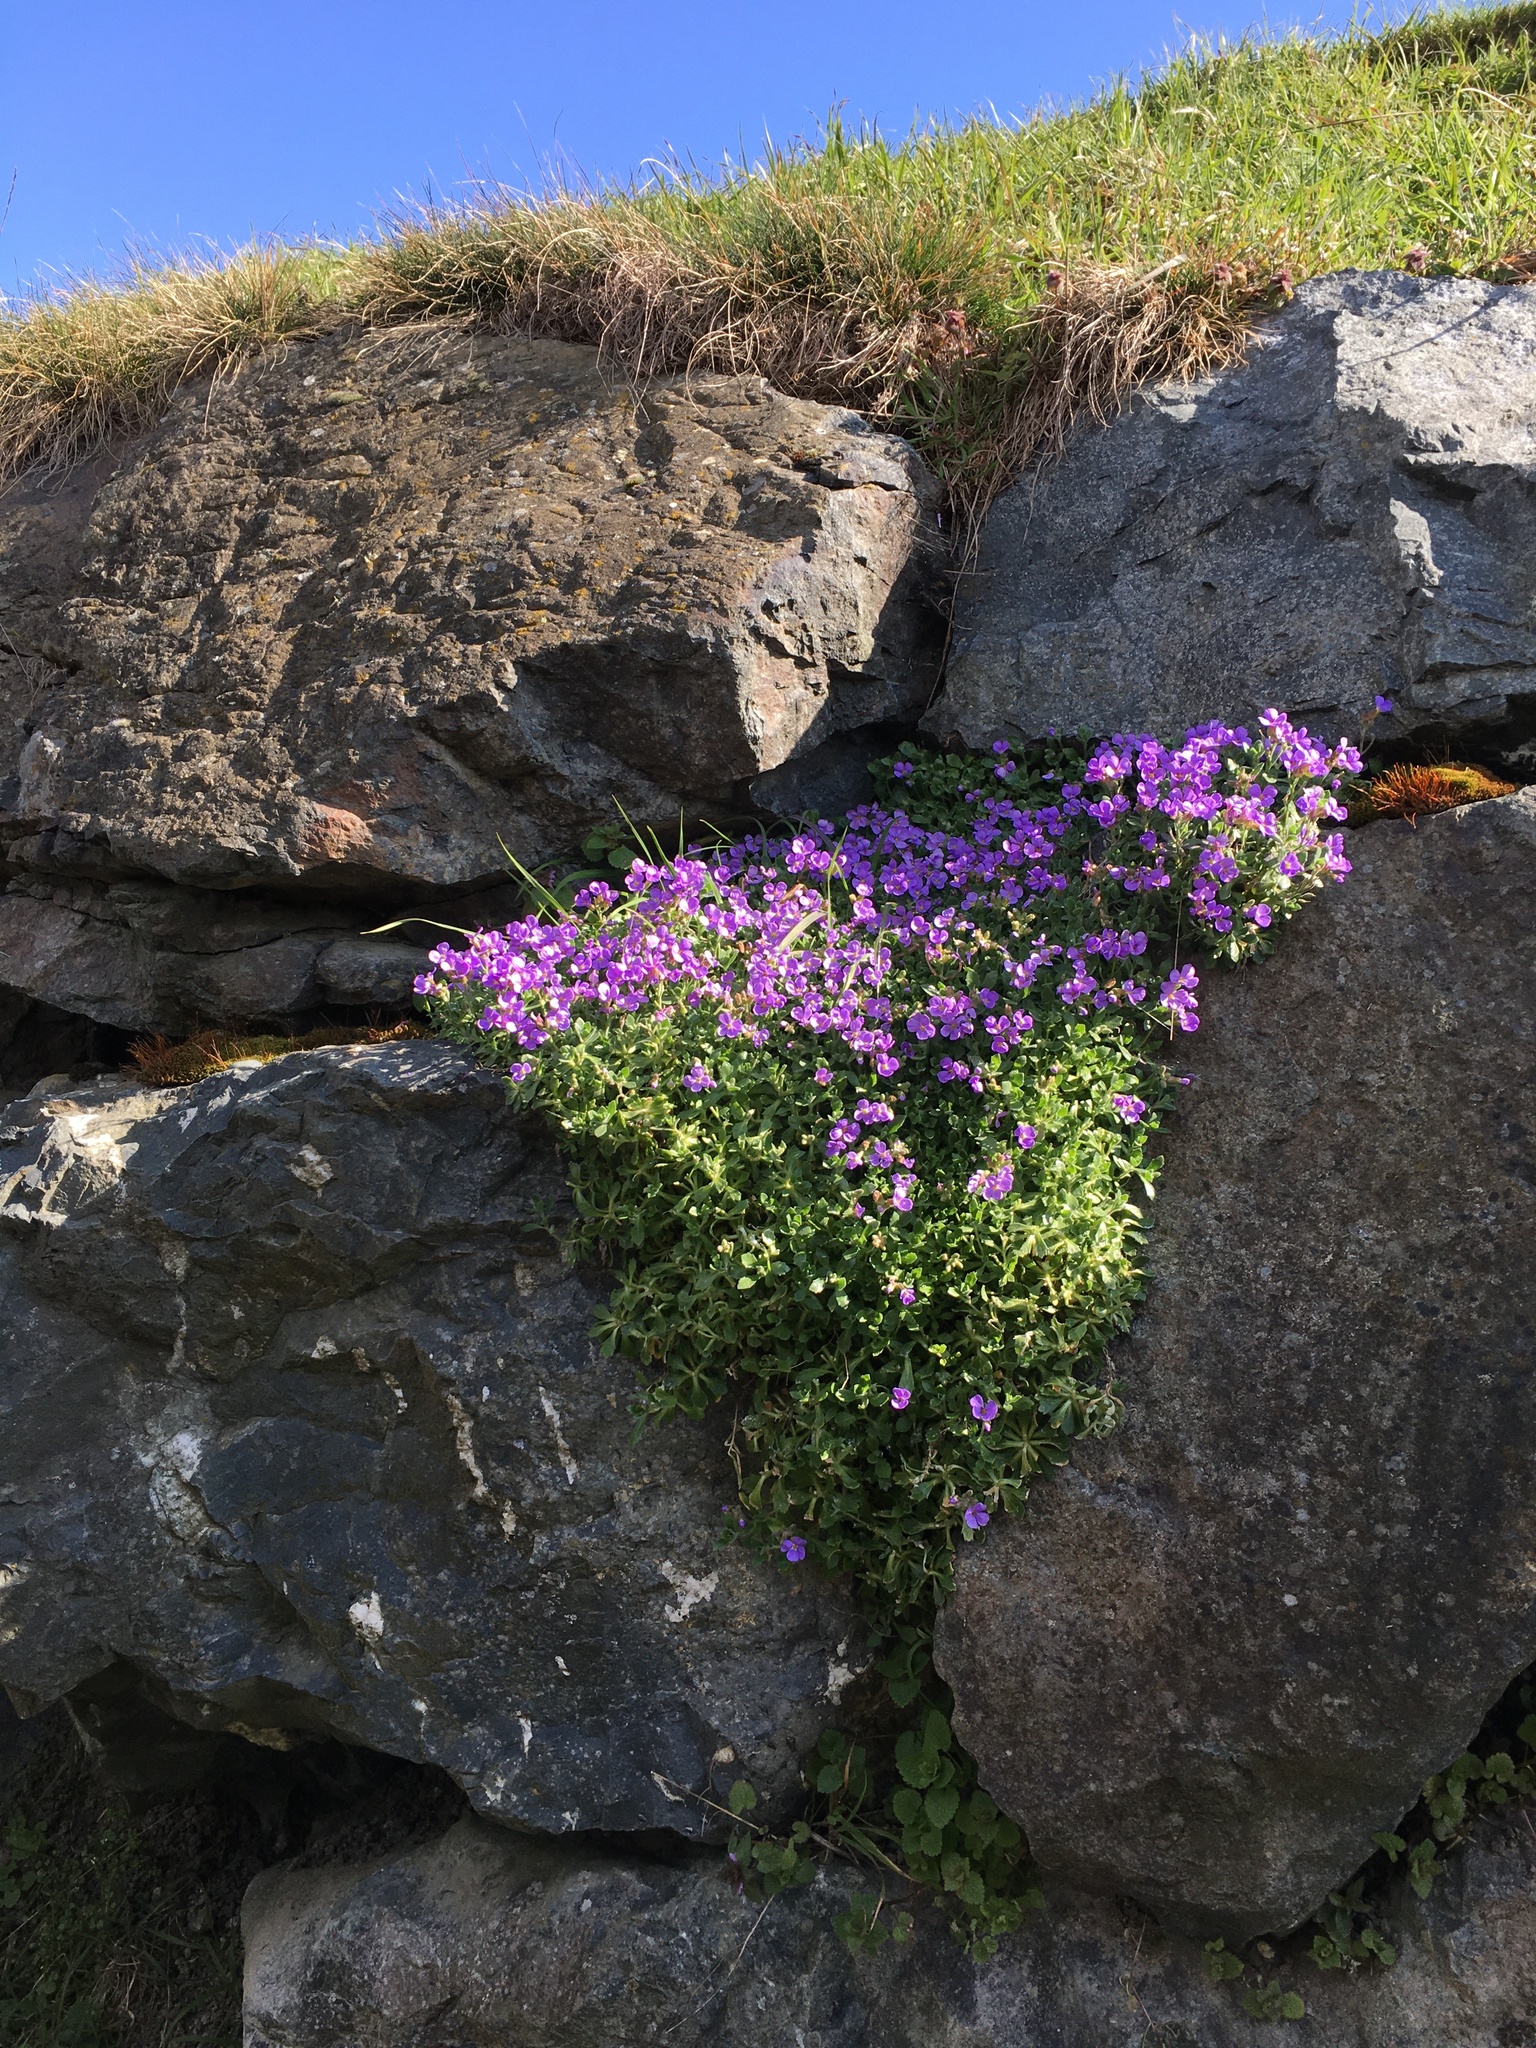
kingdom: Plantae
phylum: Tracheophyta
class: Magnoliopsida
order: Brassicales
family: Brassicaceae
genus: Aubrieta
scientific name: Aubrieta deltoidea
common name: Aubretia
